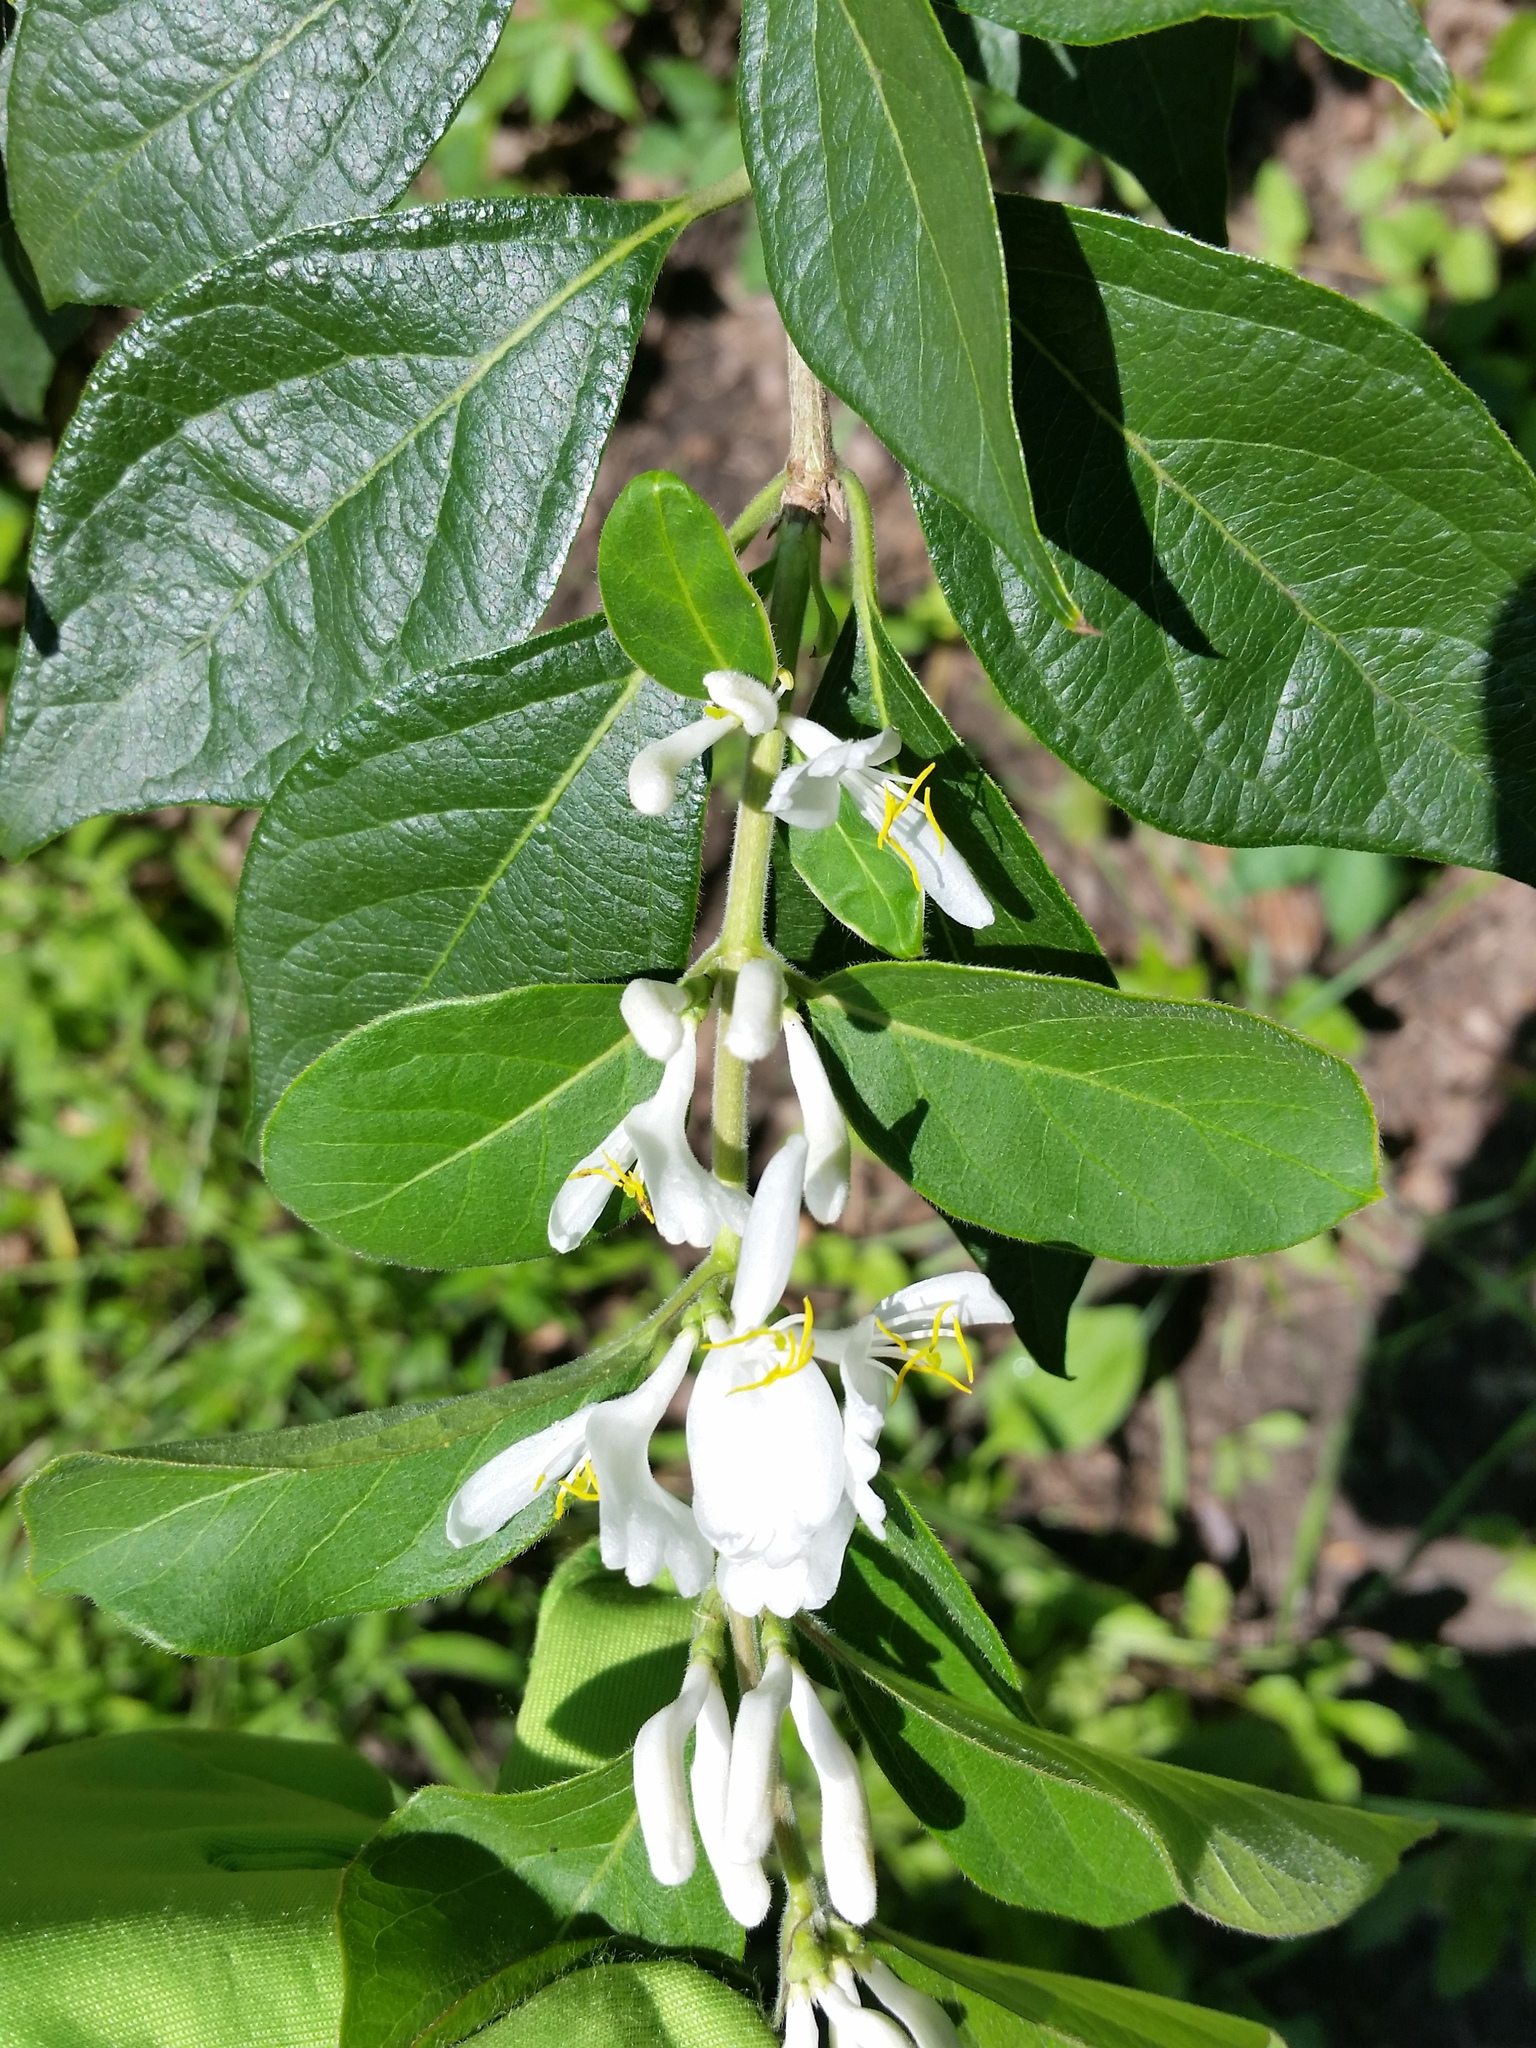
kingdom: Plantae
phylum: Tracheophyta
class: Magnoliopsida
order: Dipsacales
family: Caprifoliaceae
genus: Lonicera
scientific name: Lonicera maackii
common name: Amur honeysuckle
